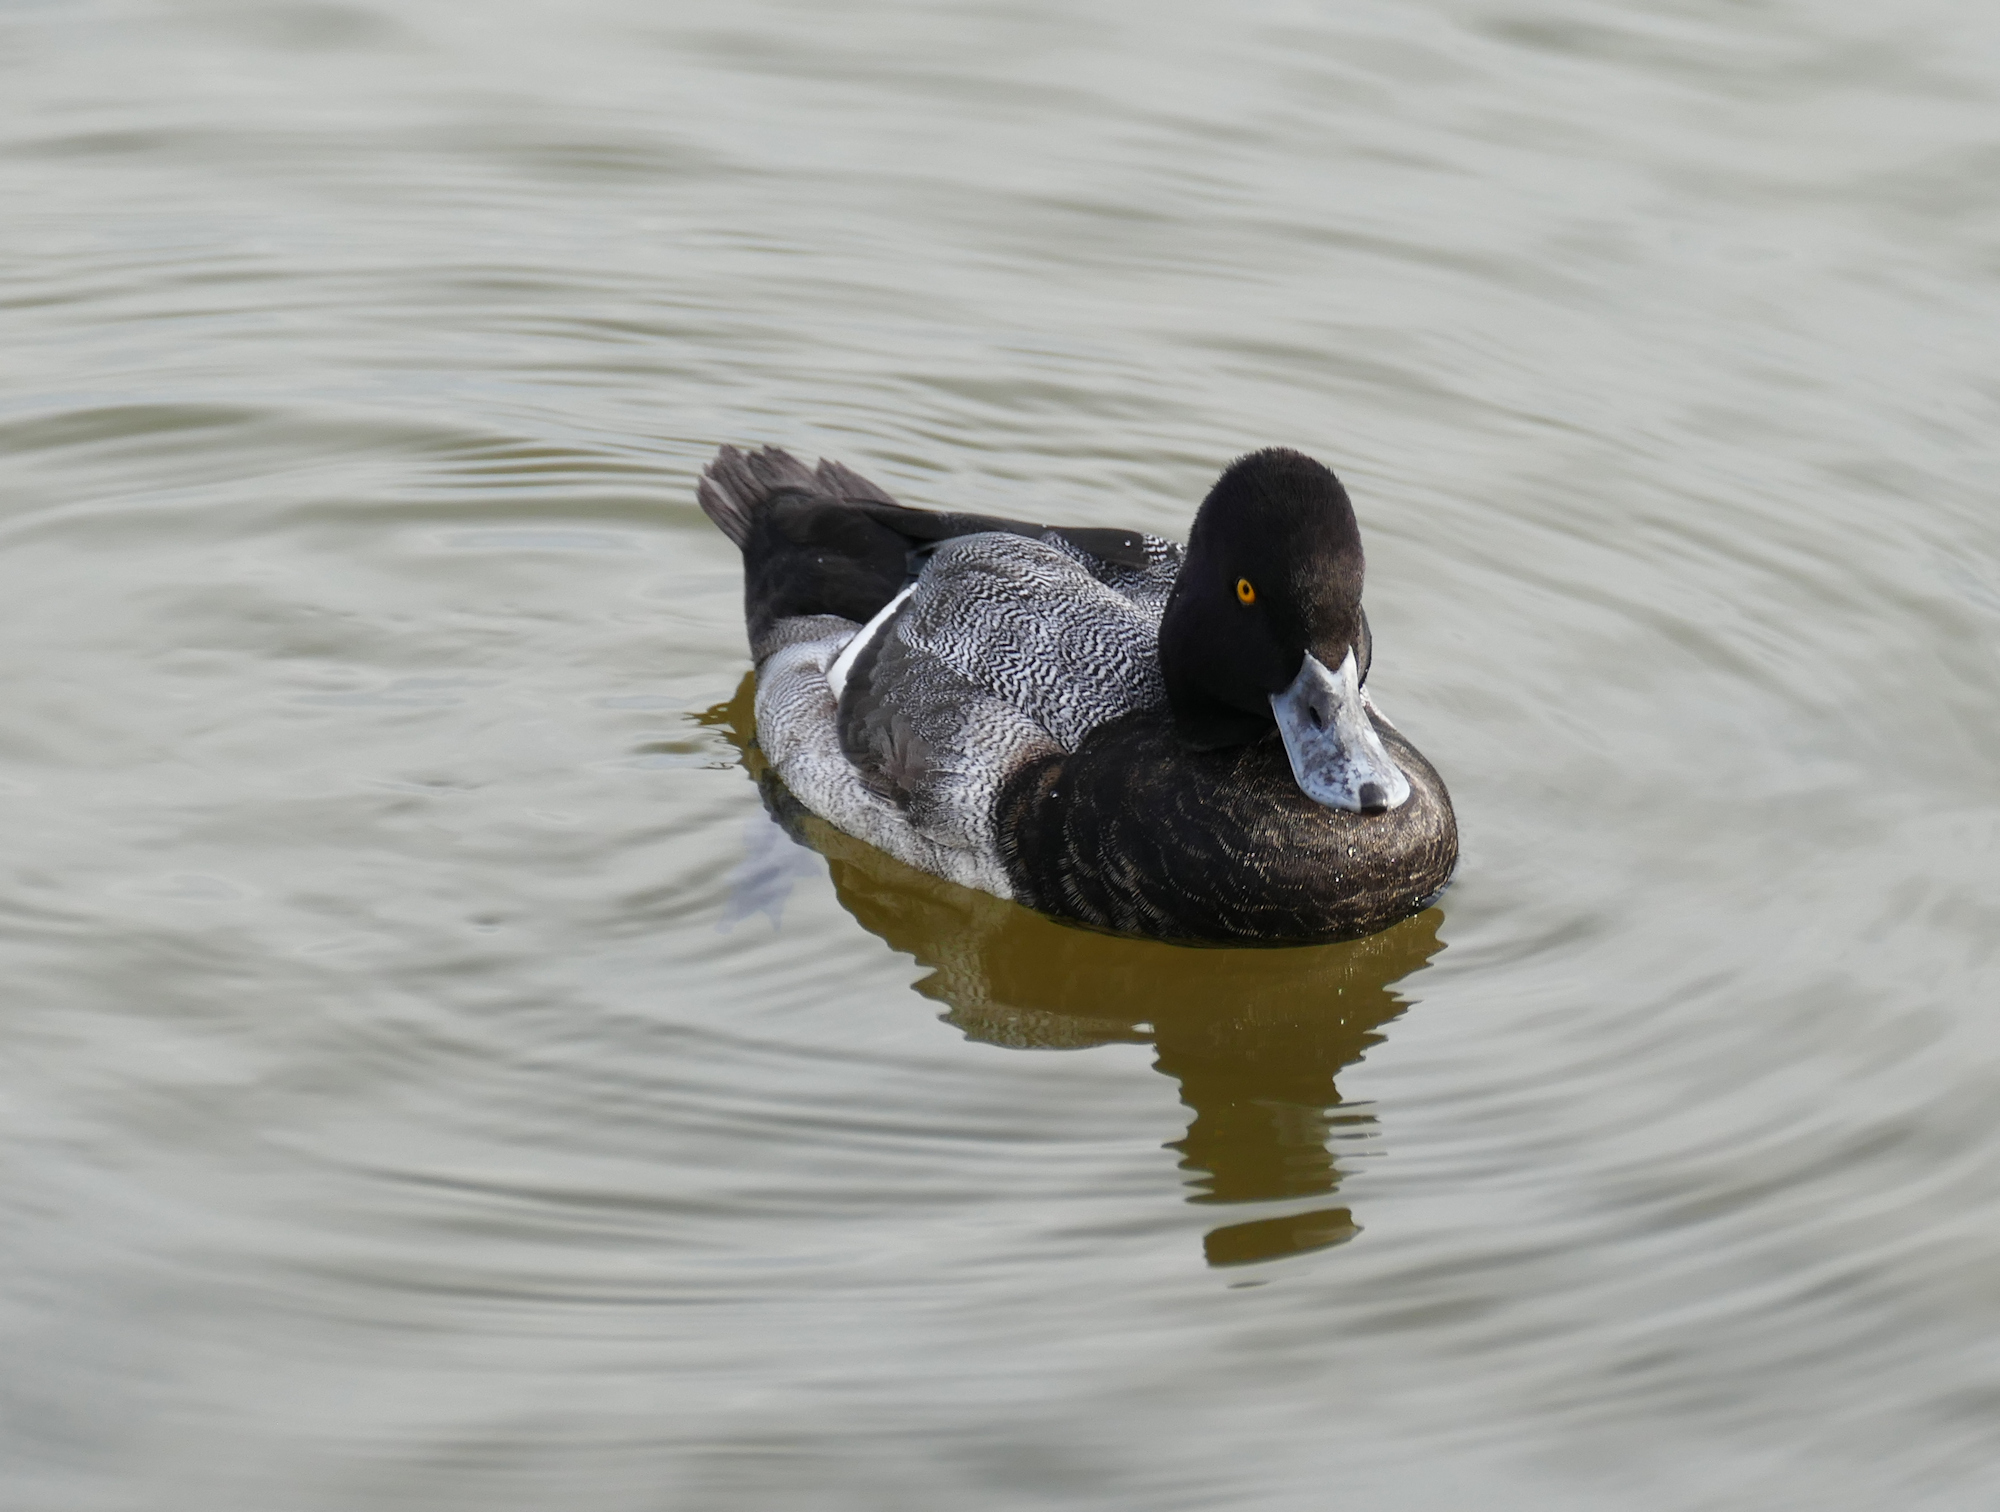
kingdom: Animalia
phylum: Chordata
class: Aves
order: Anseriformes
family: Anatidae
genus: Aythya
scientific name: Aythya affinis
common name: Lesser scaup
